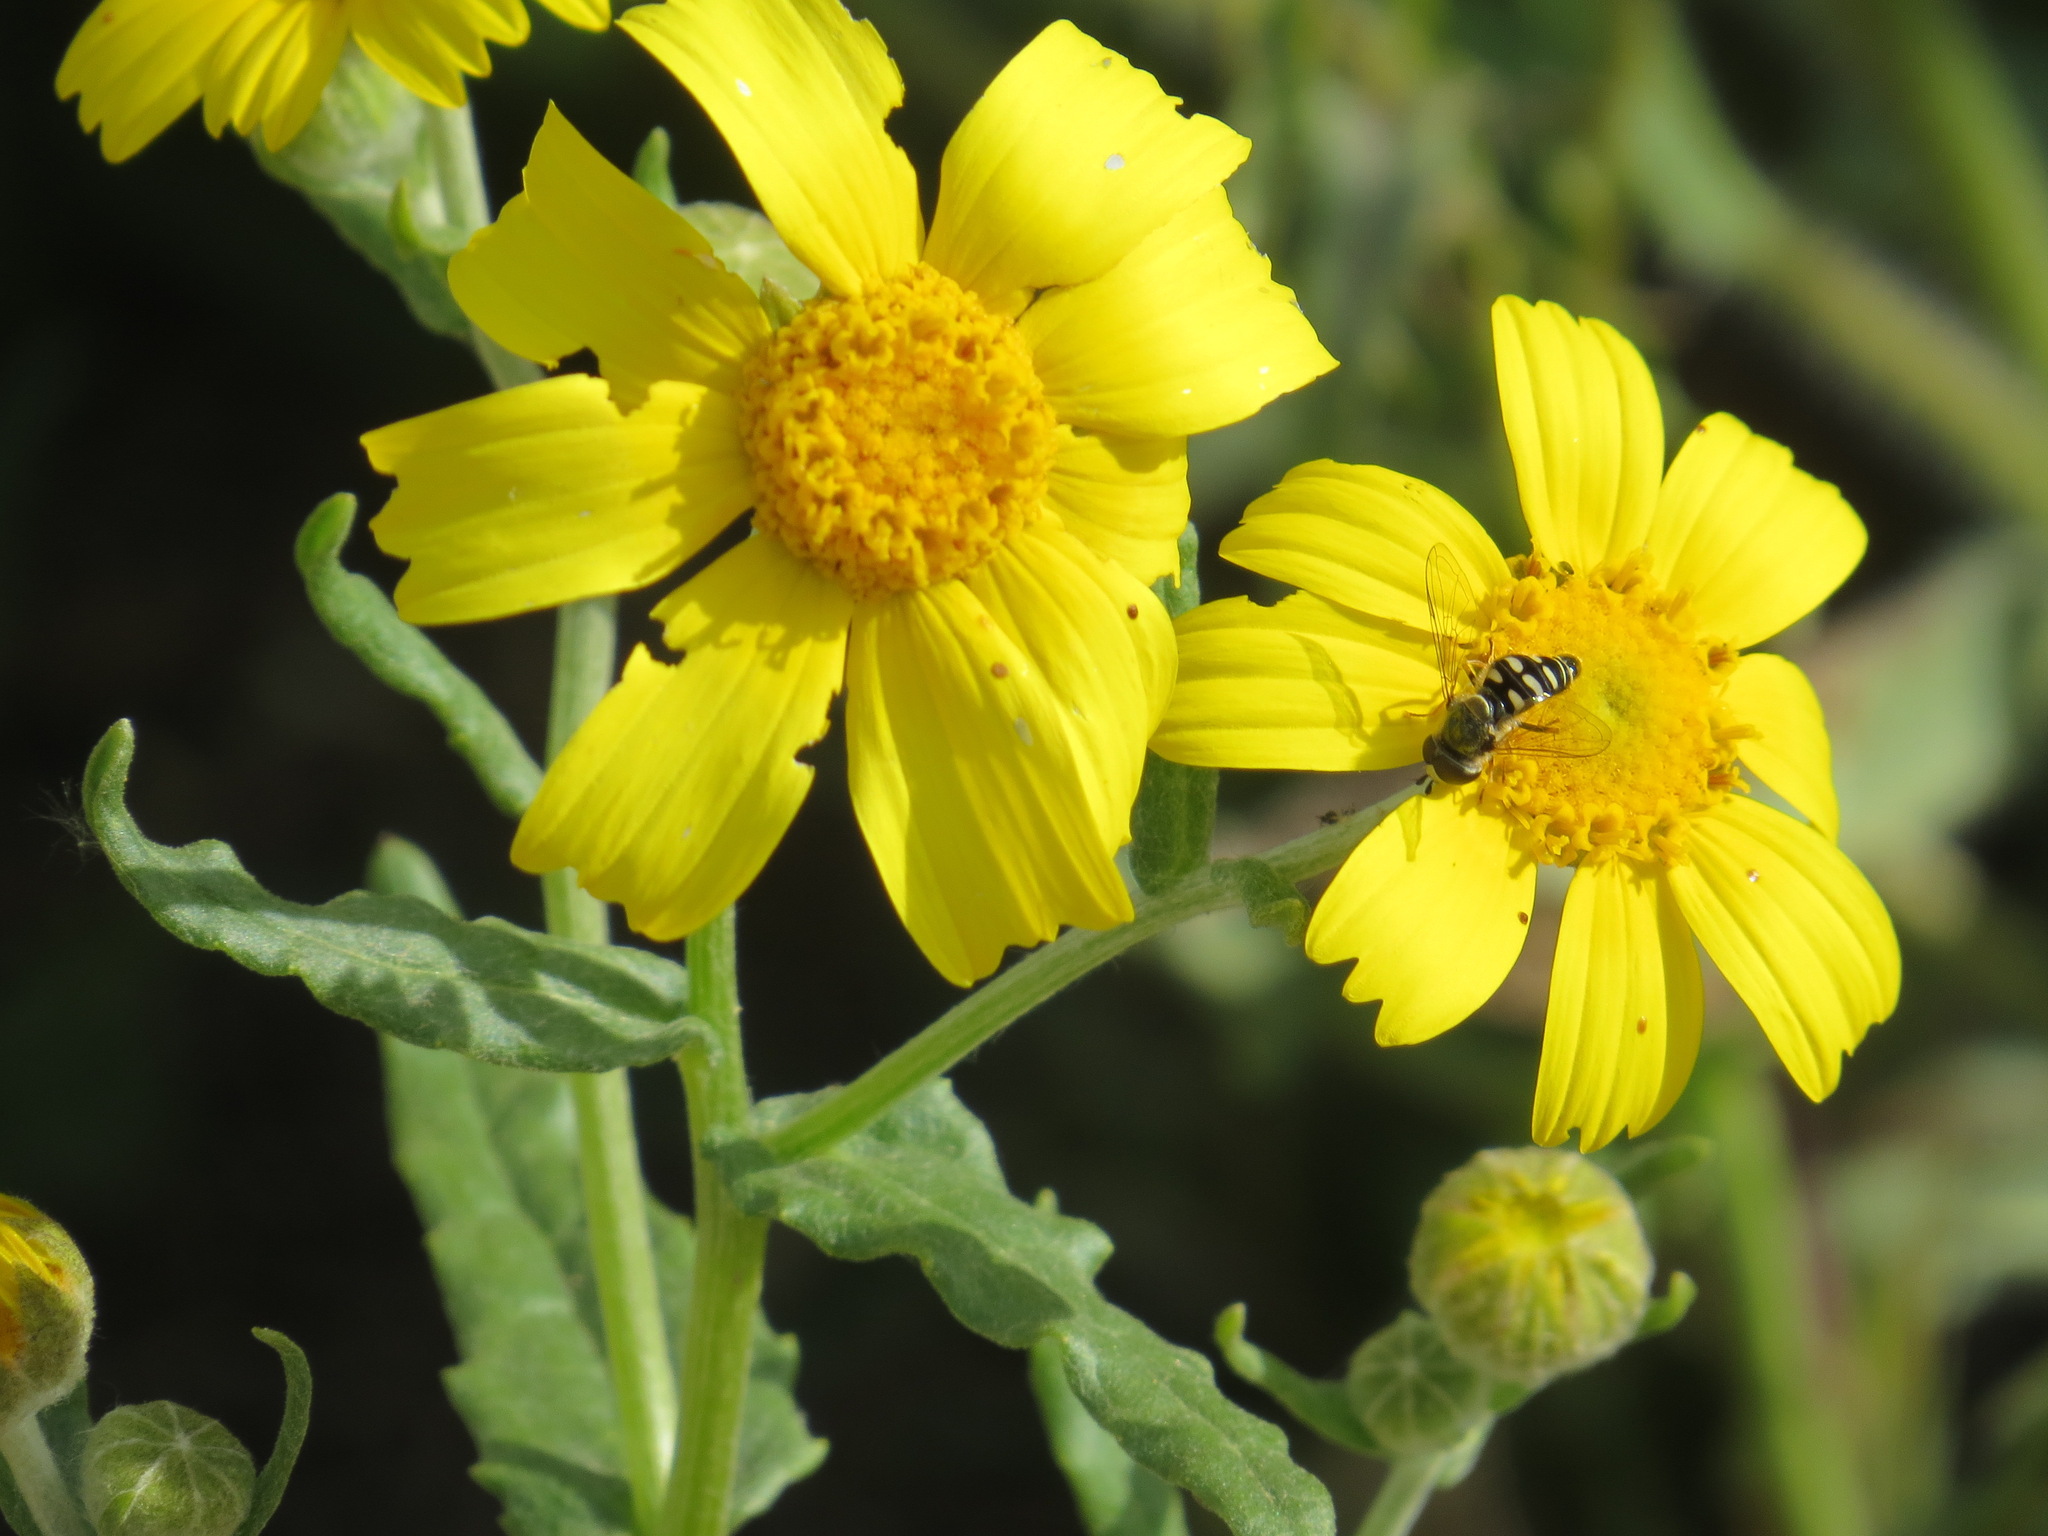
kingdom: Animalia
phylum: Arthropoda
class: Insecta
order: Diptera
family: Syrphidae
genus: Eupeodes
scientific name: Eupeodes volucris
